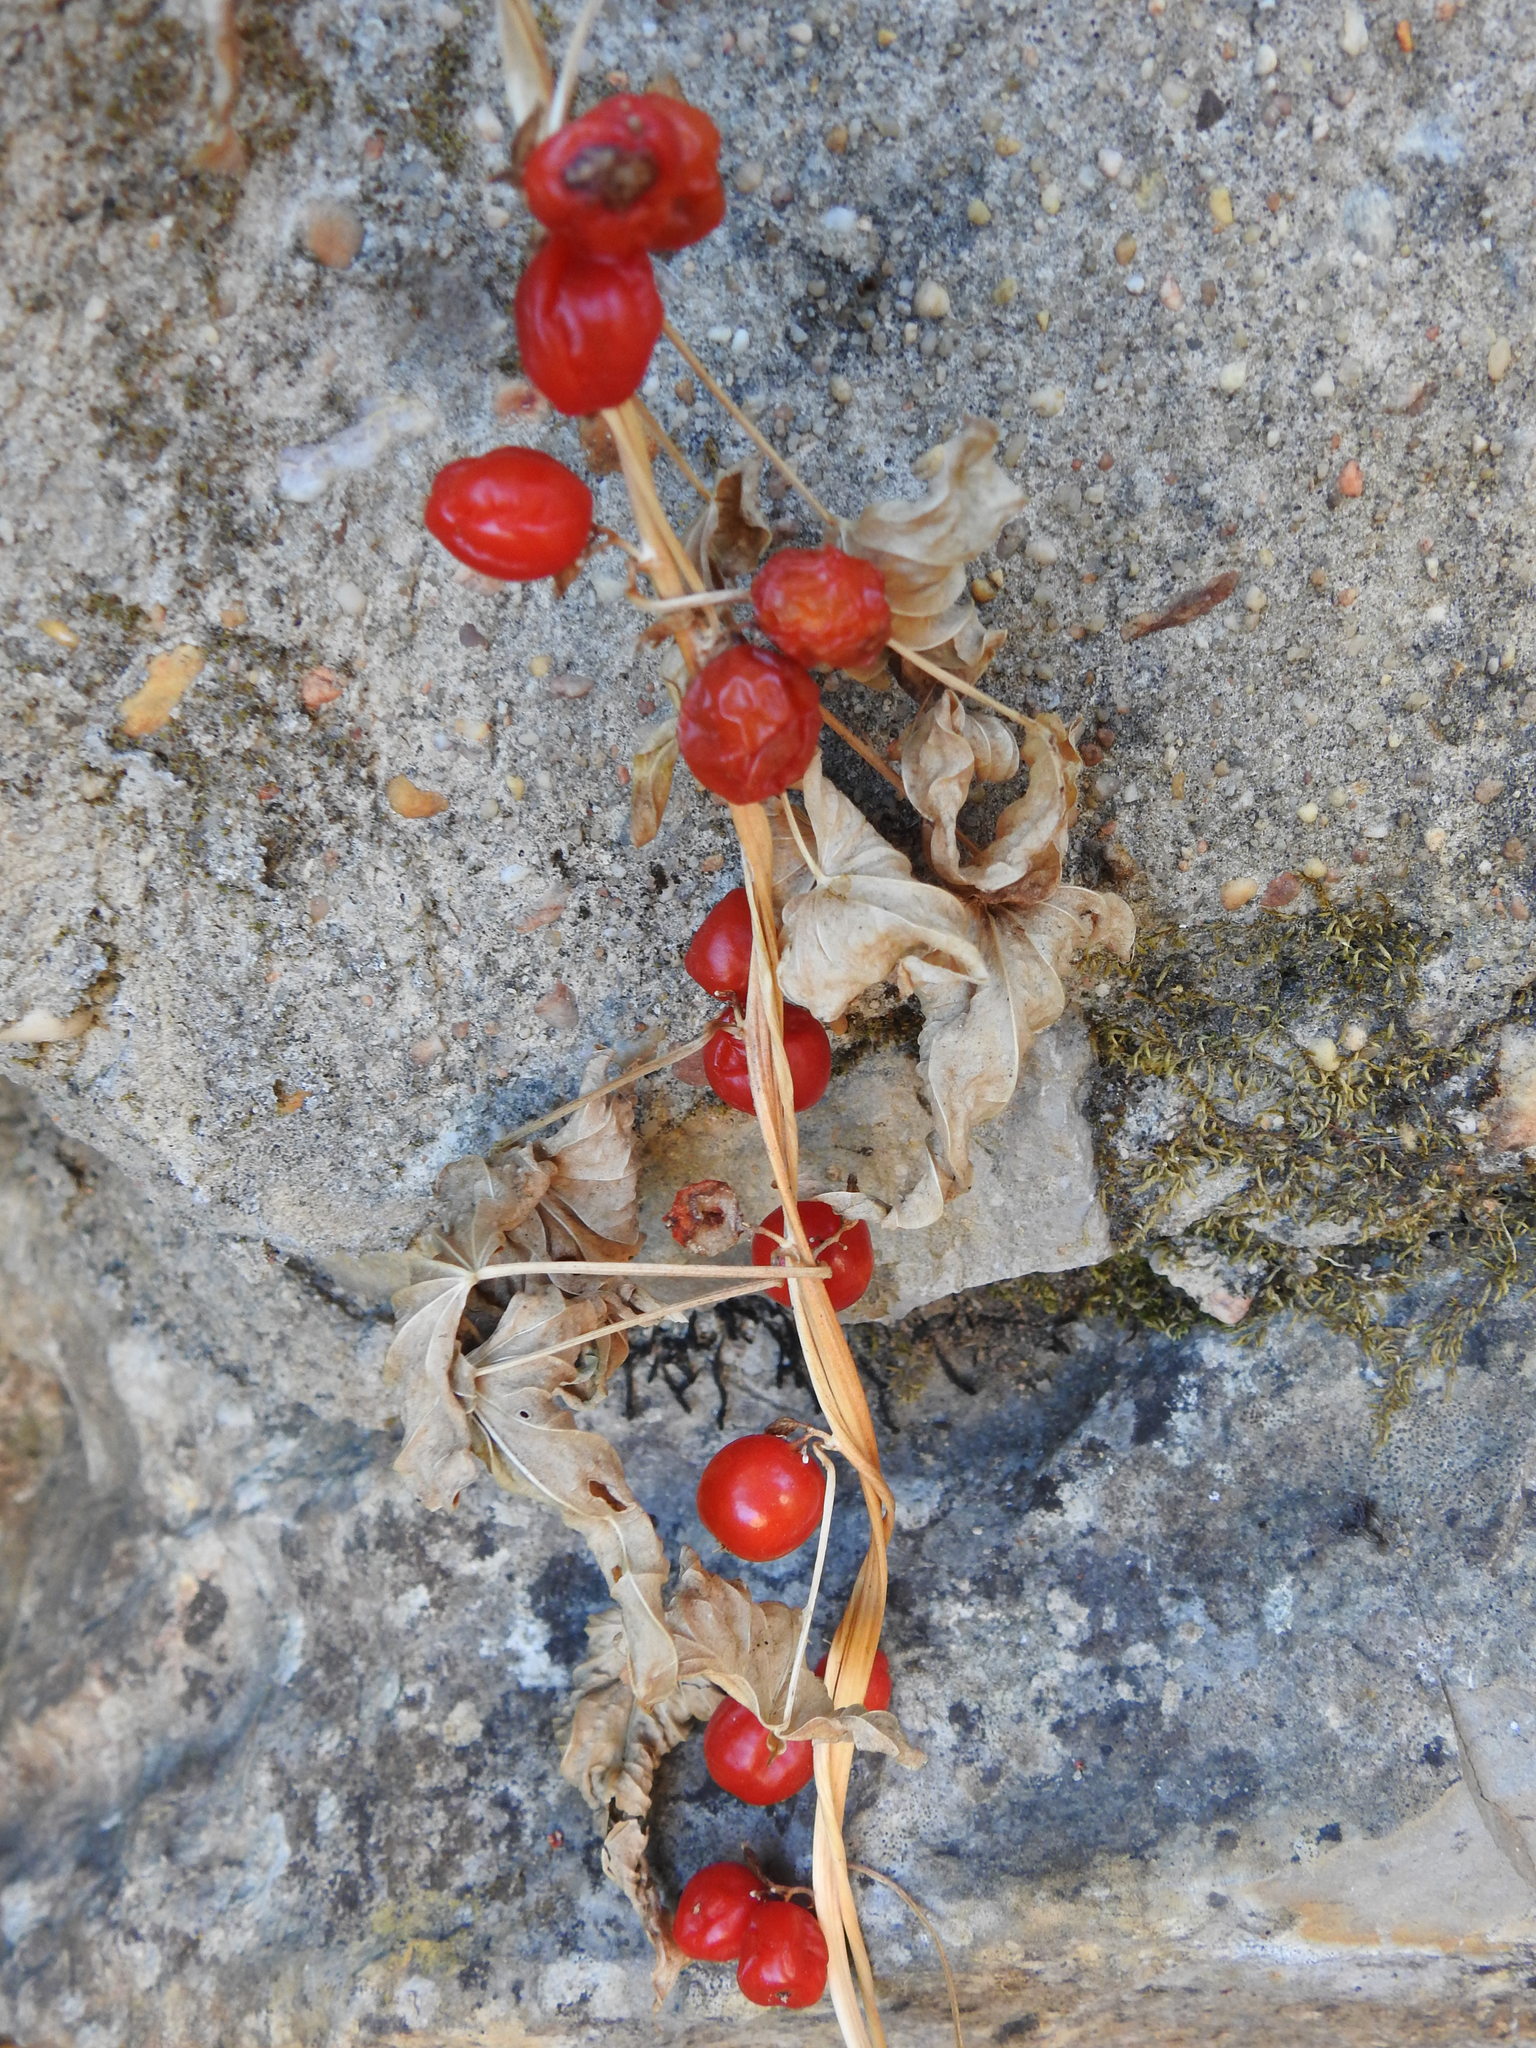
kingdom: Plantae
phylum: Tracheophyta
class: Liliopsida
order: Dioscoreales
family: Dioscoreaceae
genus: Dioscorea
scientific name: Dioscorea communis
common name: Black-bindweed
